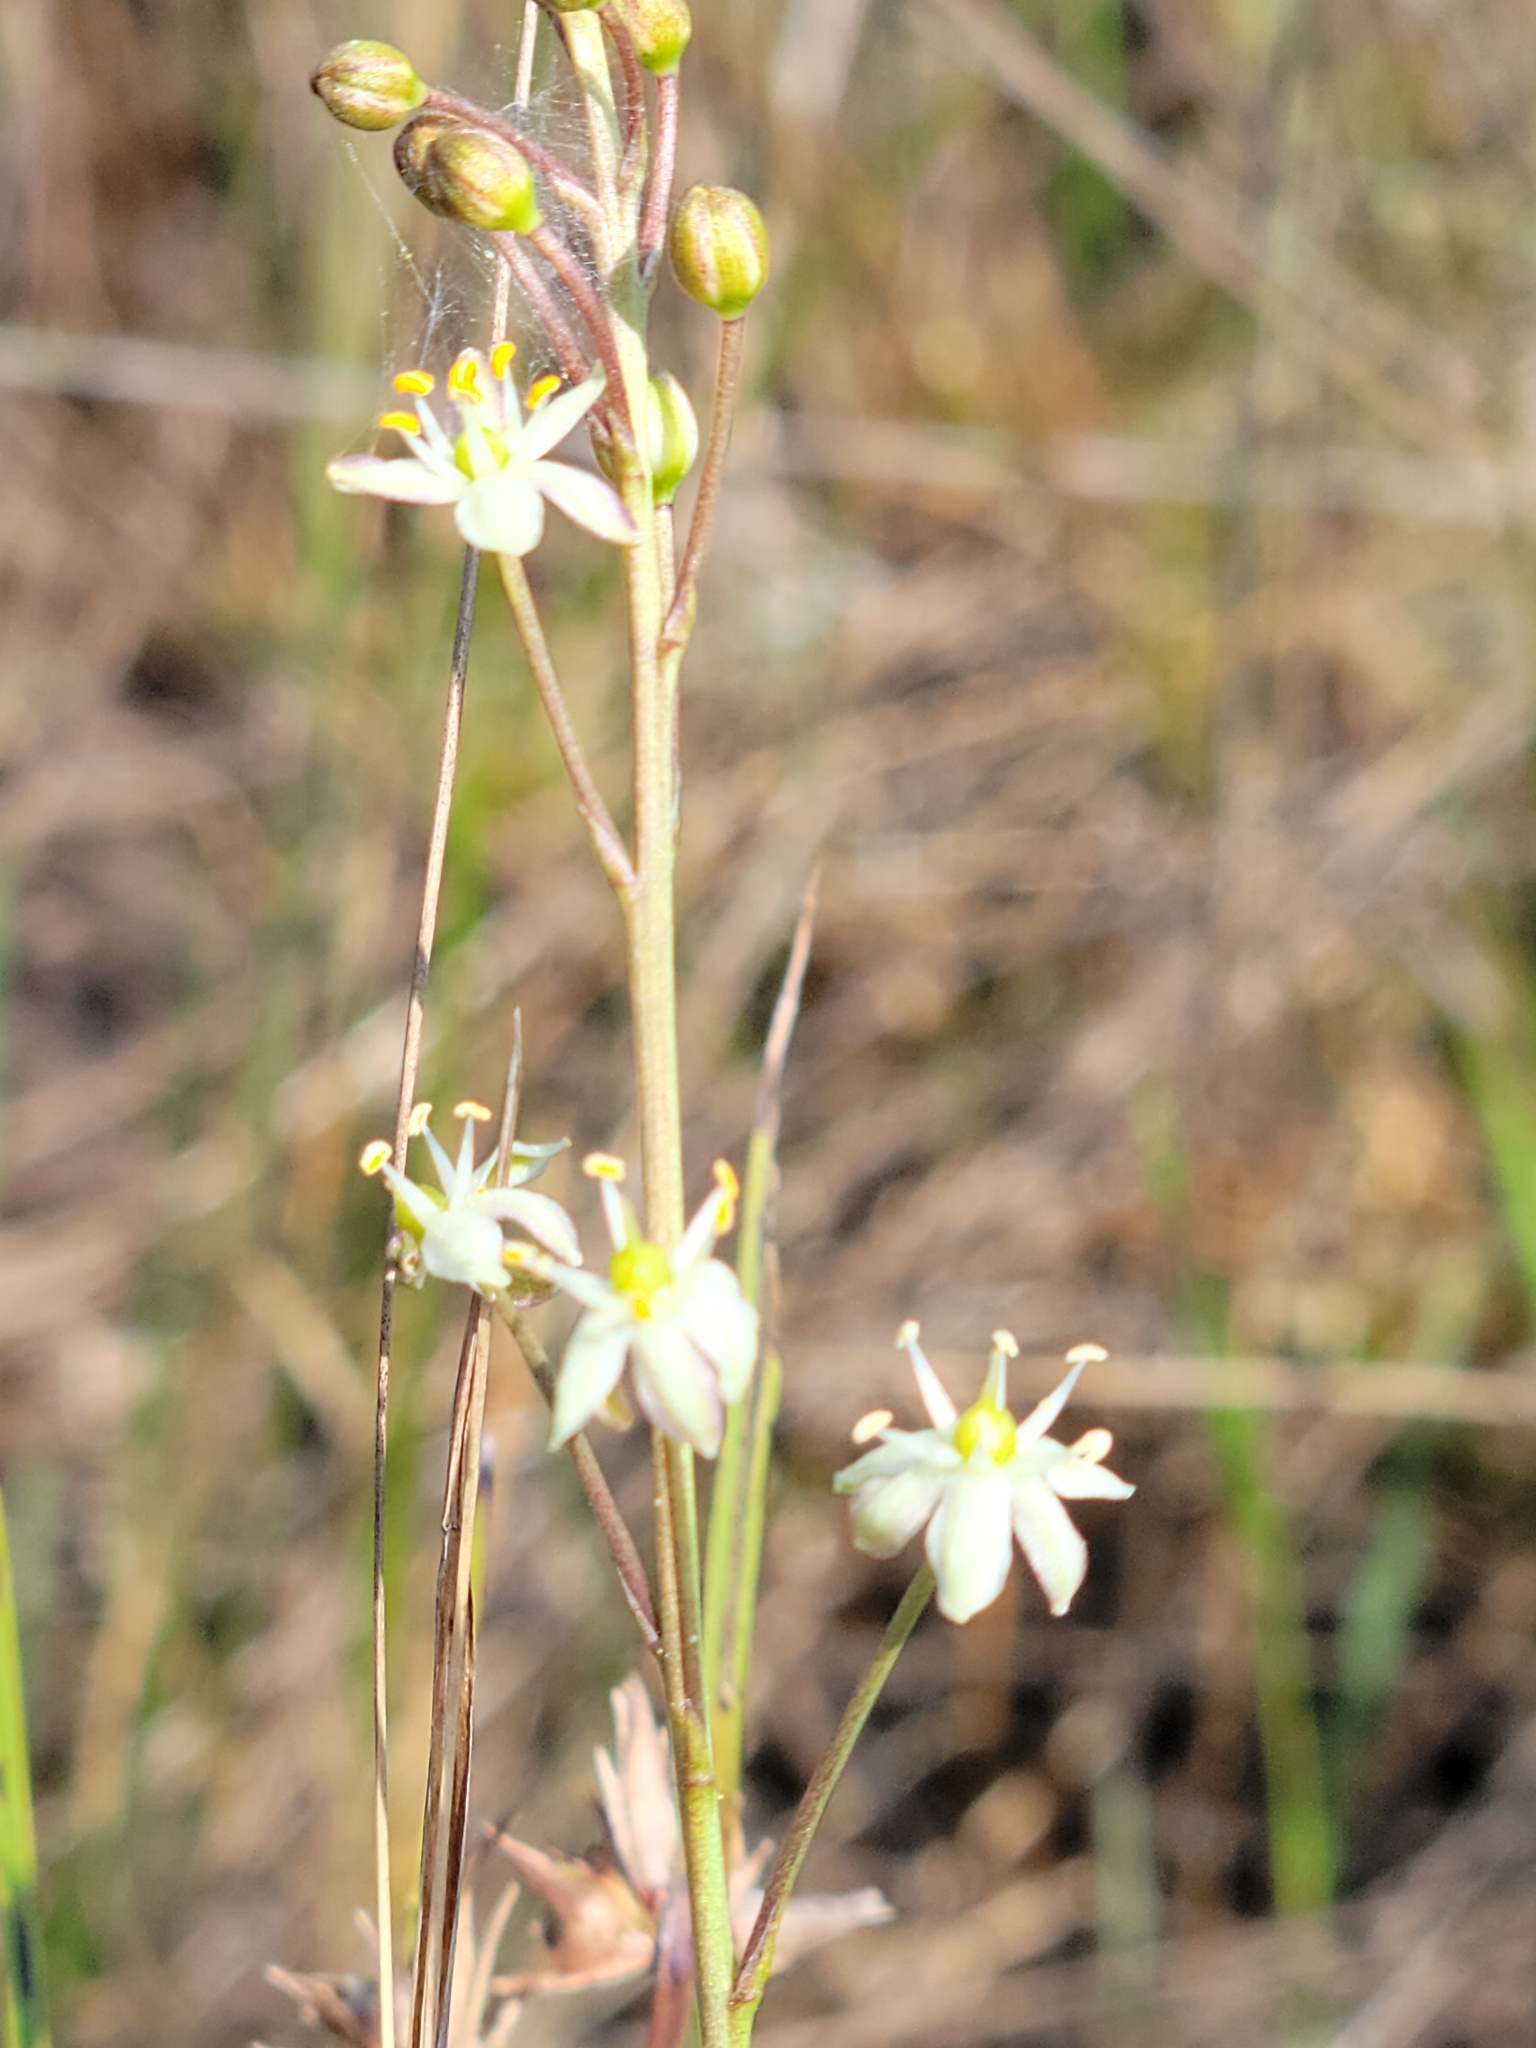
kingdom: Plantae
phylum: Tracheophyta
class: Liliopsida
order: Asparagales
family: Asparagaceae
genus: Schoenolirion
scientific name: Schoenolirion albiflorum
